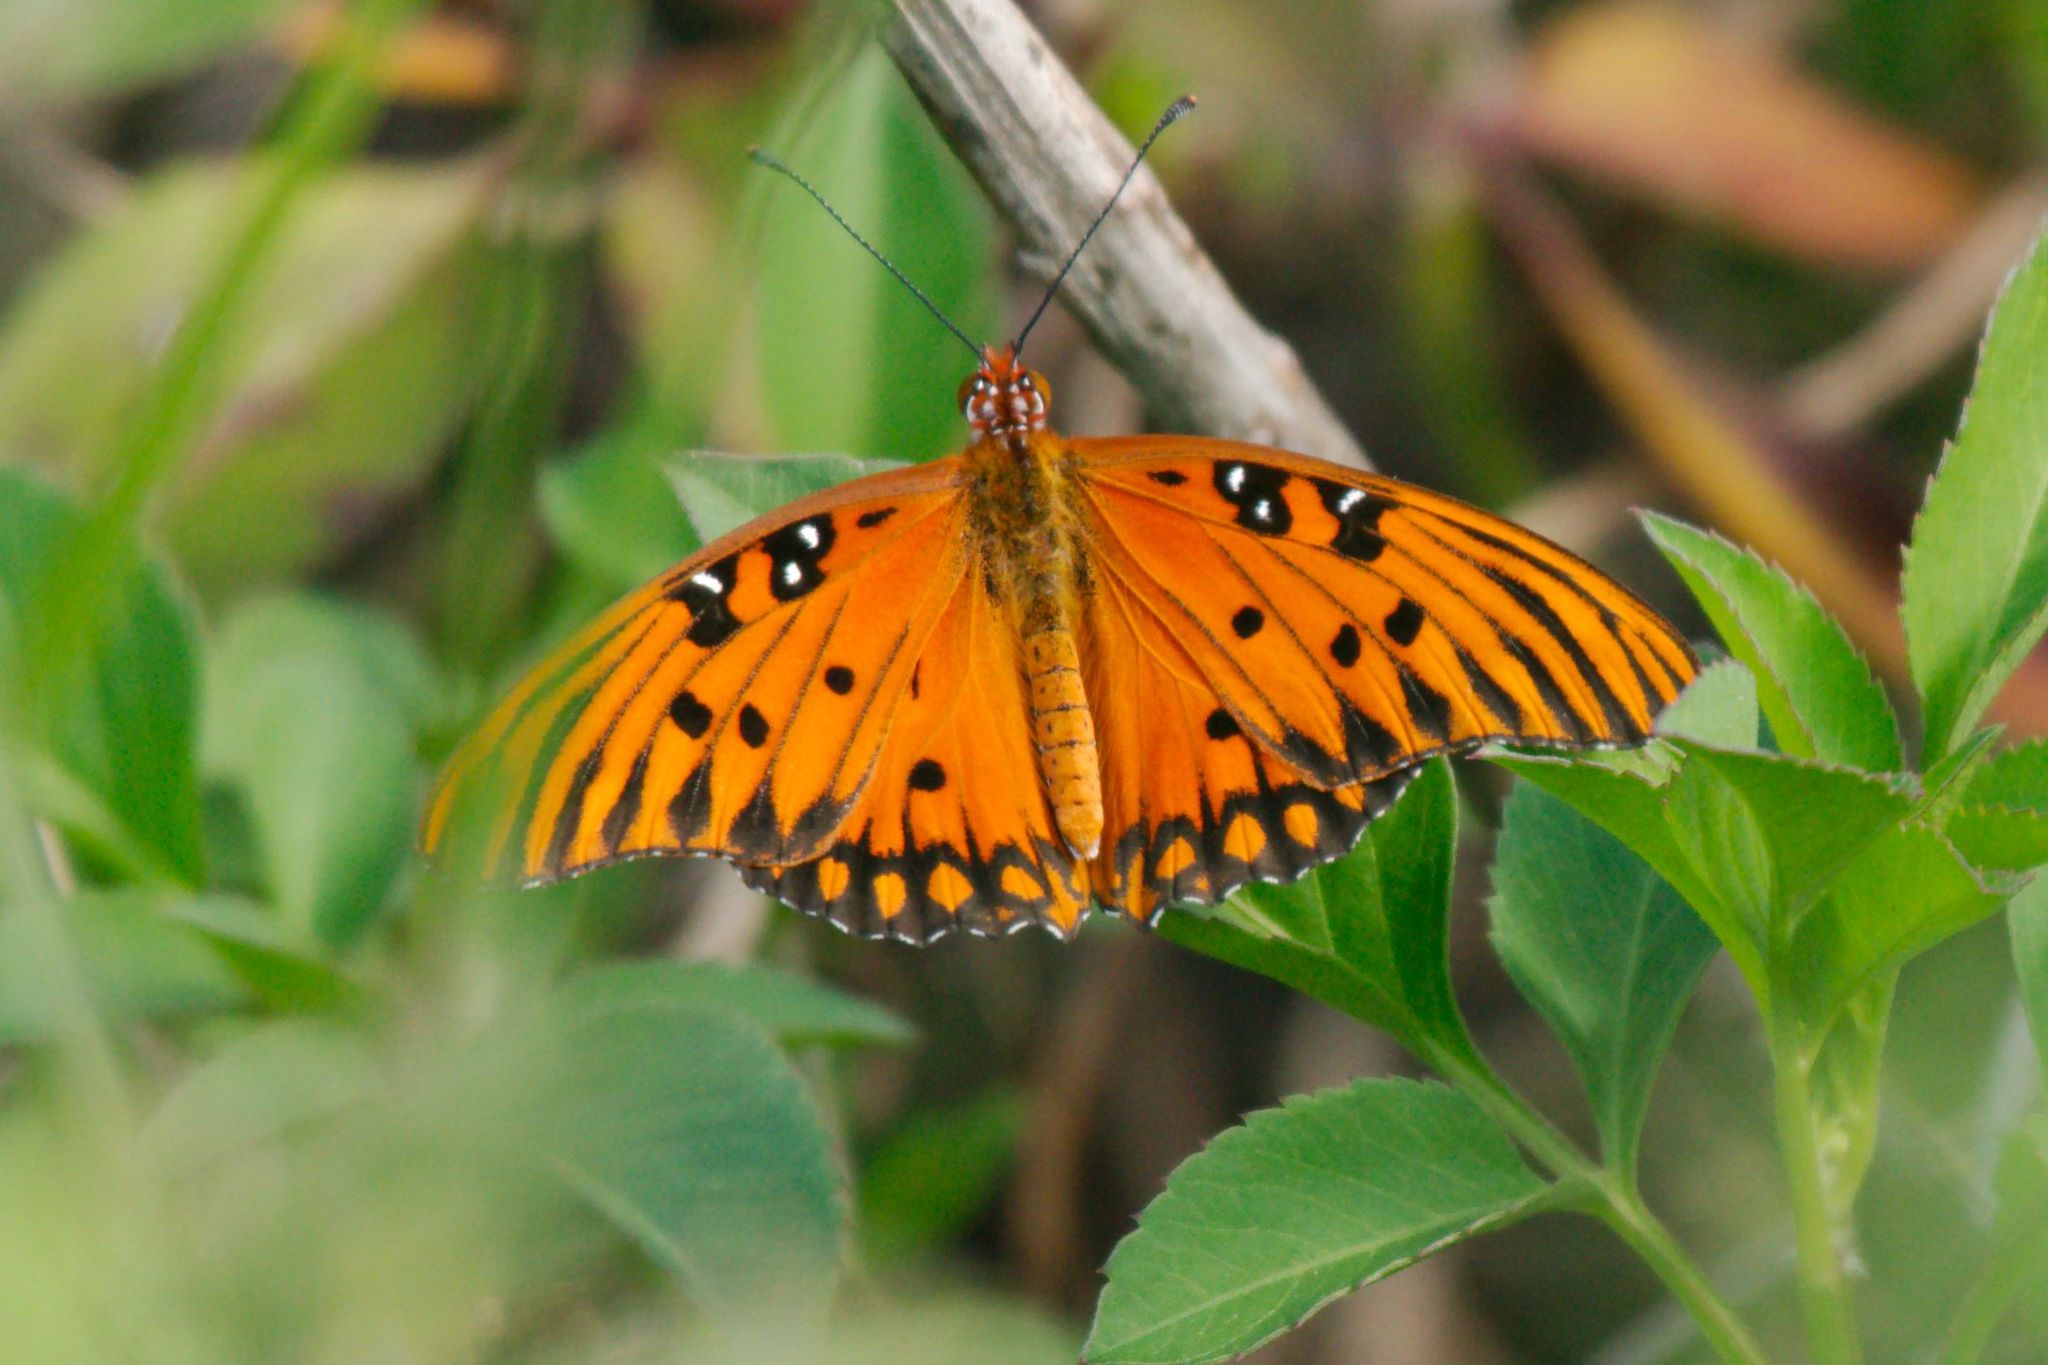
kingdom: Animalia
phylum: Arthropoda
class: Insecta
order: Lepidoptera
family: Nymphalidae
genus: Dione
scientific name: Dione vanillae
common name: Gulf fritillary
